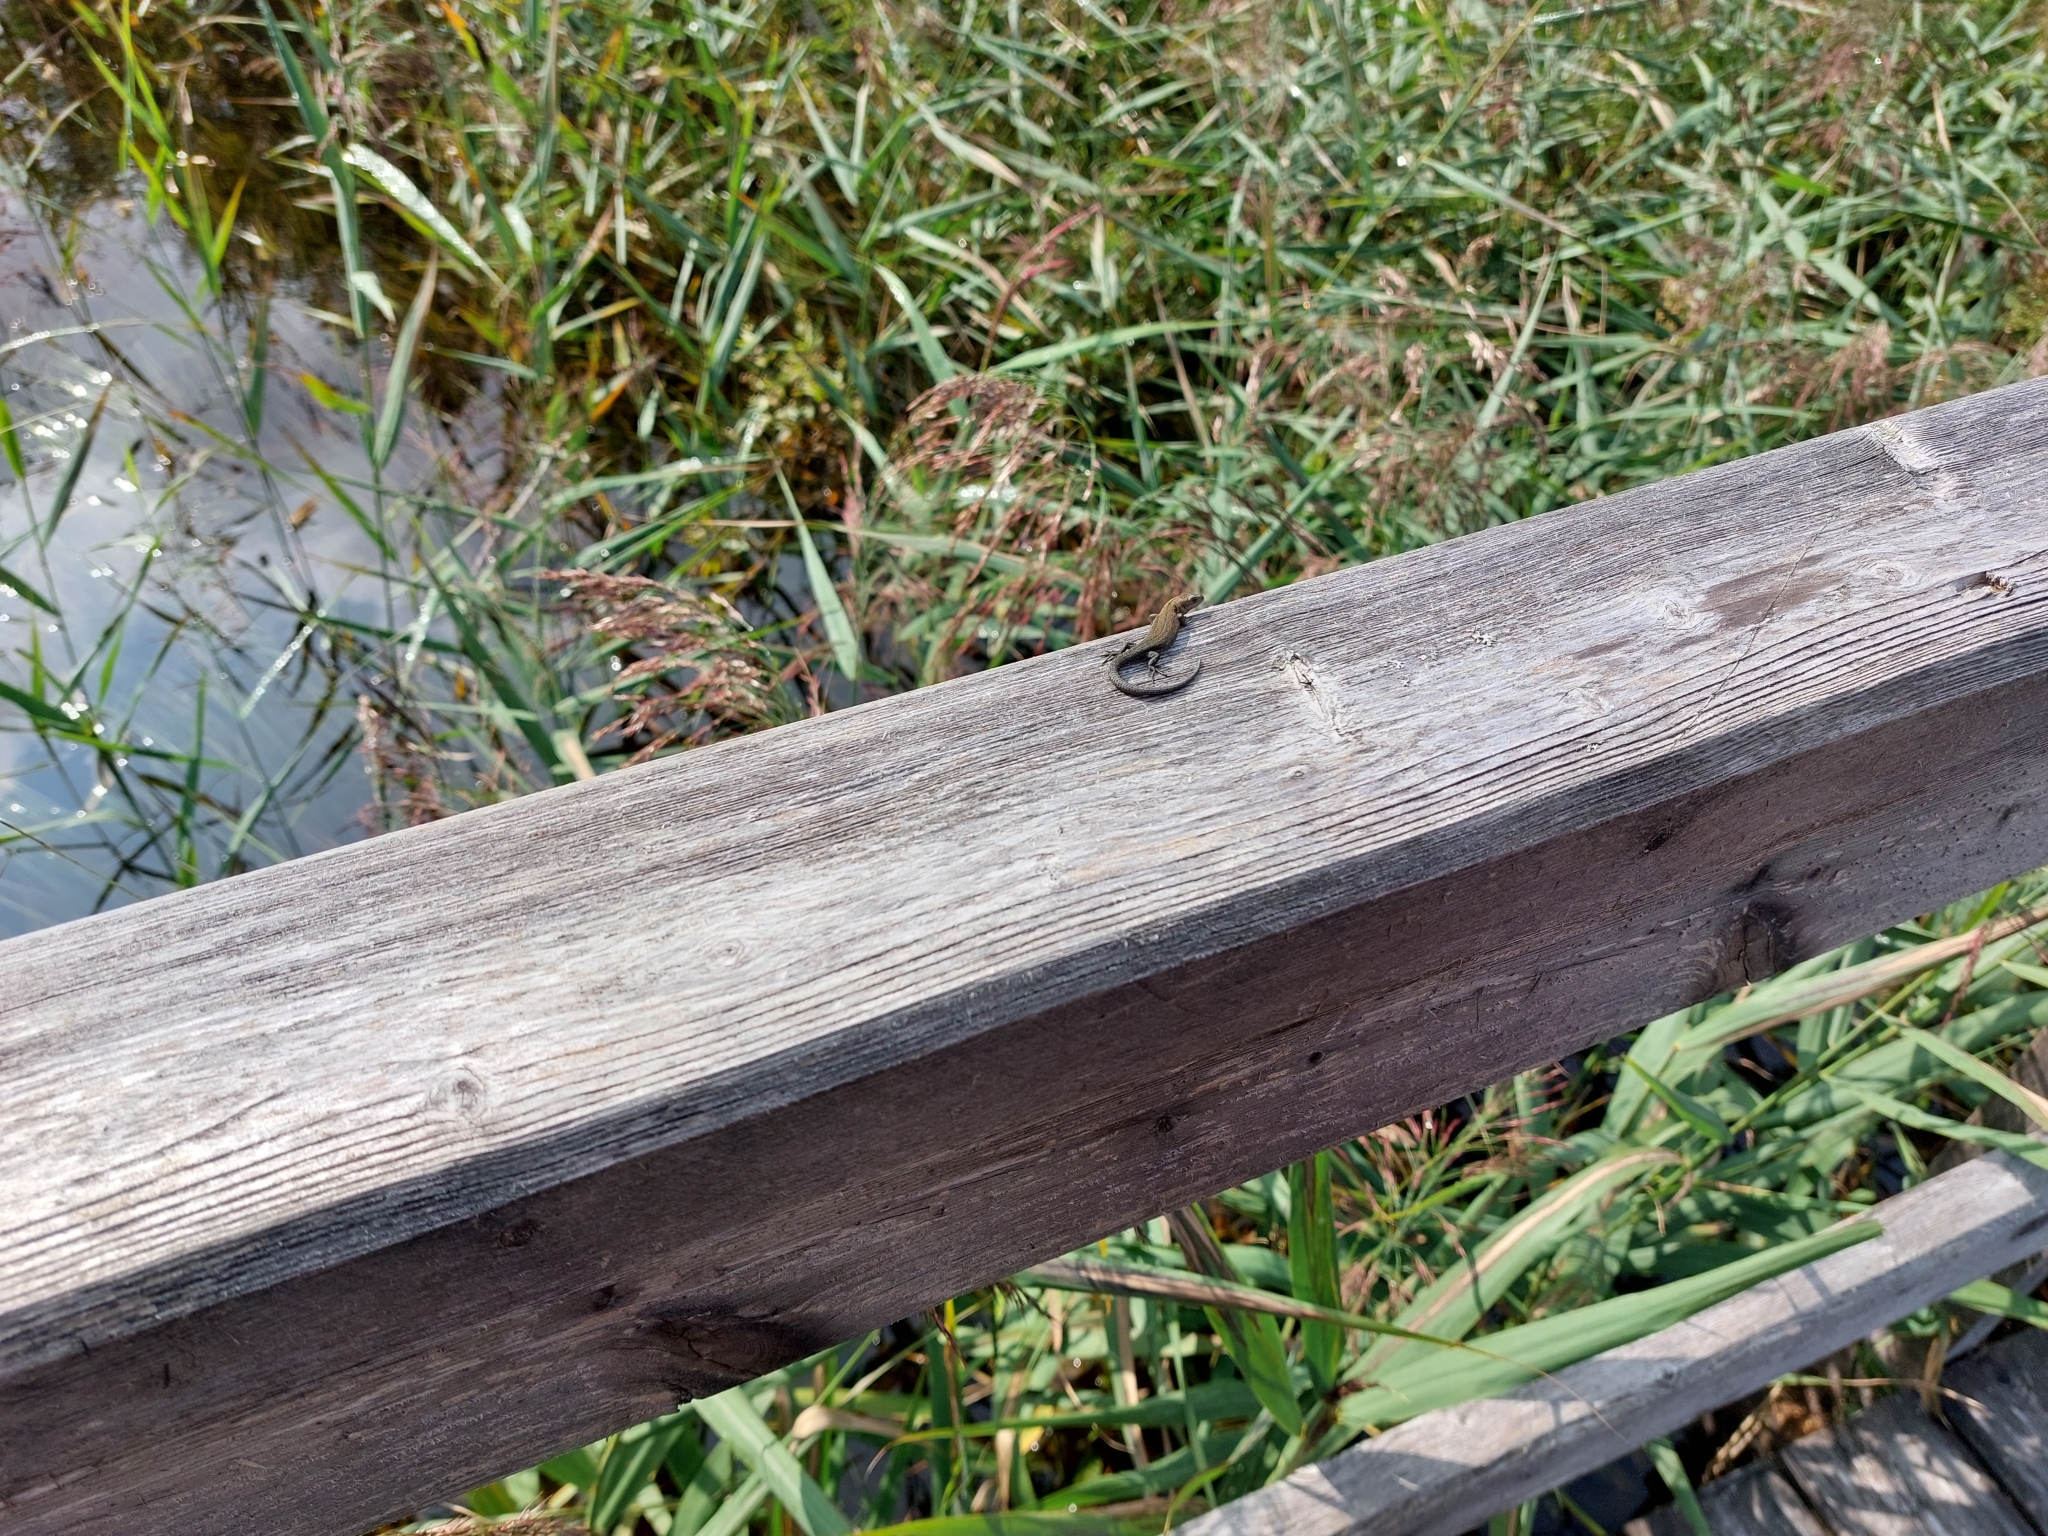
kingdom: Animalia
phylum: Chordata
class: Squamata
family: Lacertidae
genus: Zootoca
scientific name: Zootoca vivipara
